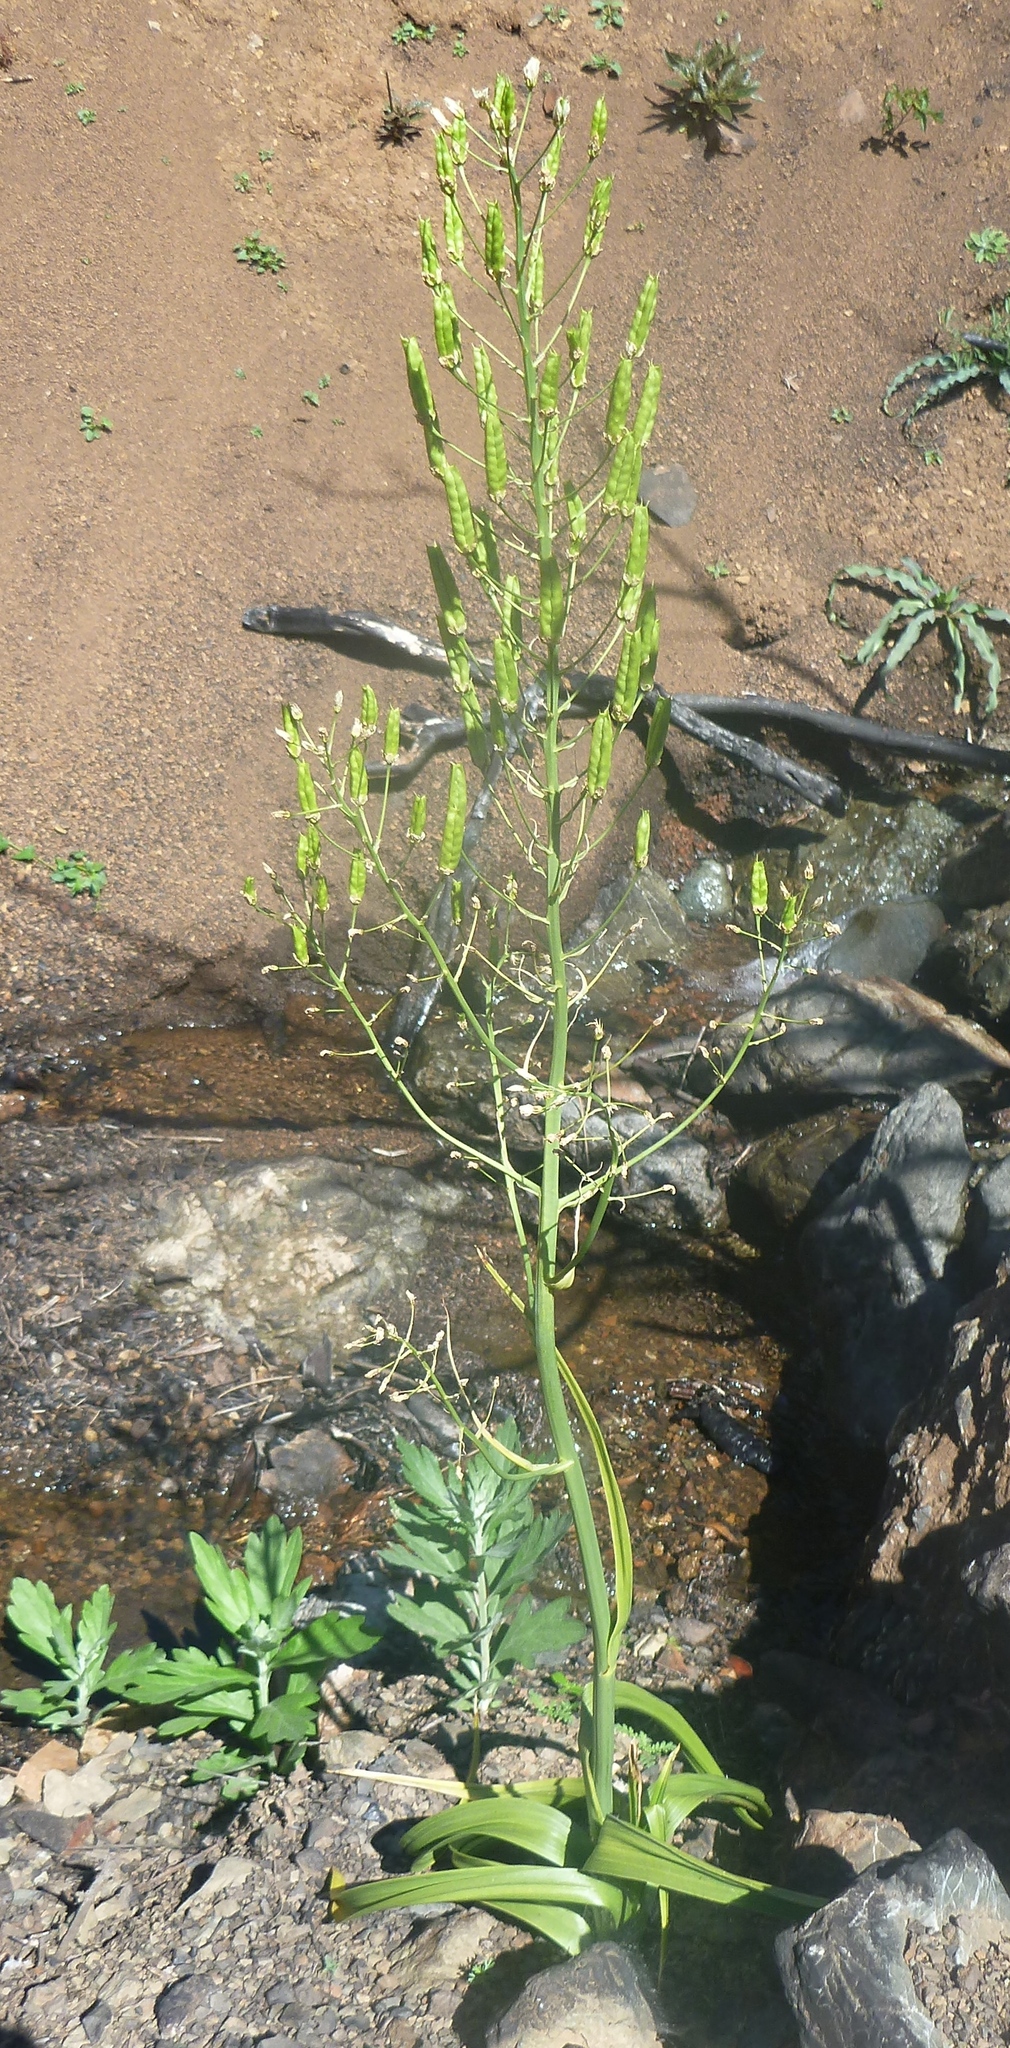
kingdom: Plantae
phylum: Tracheophyta
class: Liliopsida
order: Liliales
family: Melanthiaceae
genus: Toxicoscordion
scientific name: Toxicoscordion fremontii
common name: Fremont's death camas
